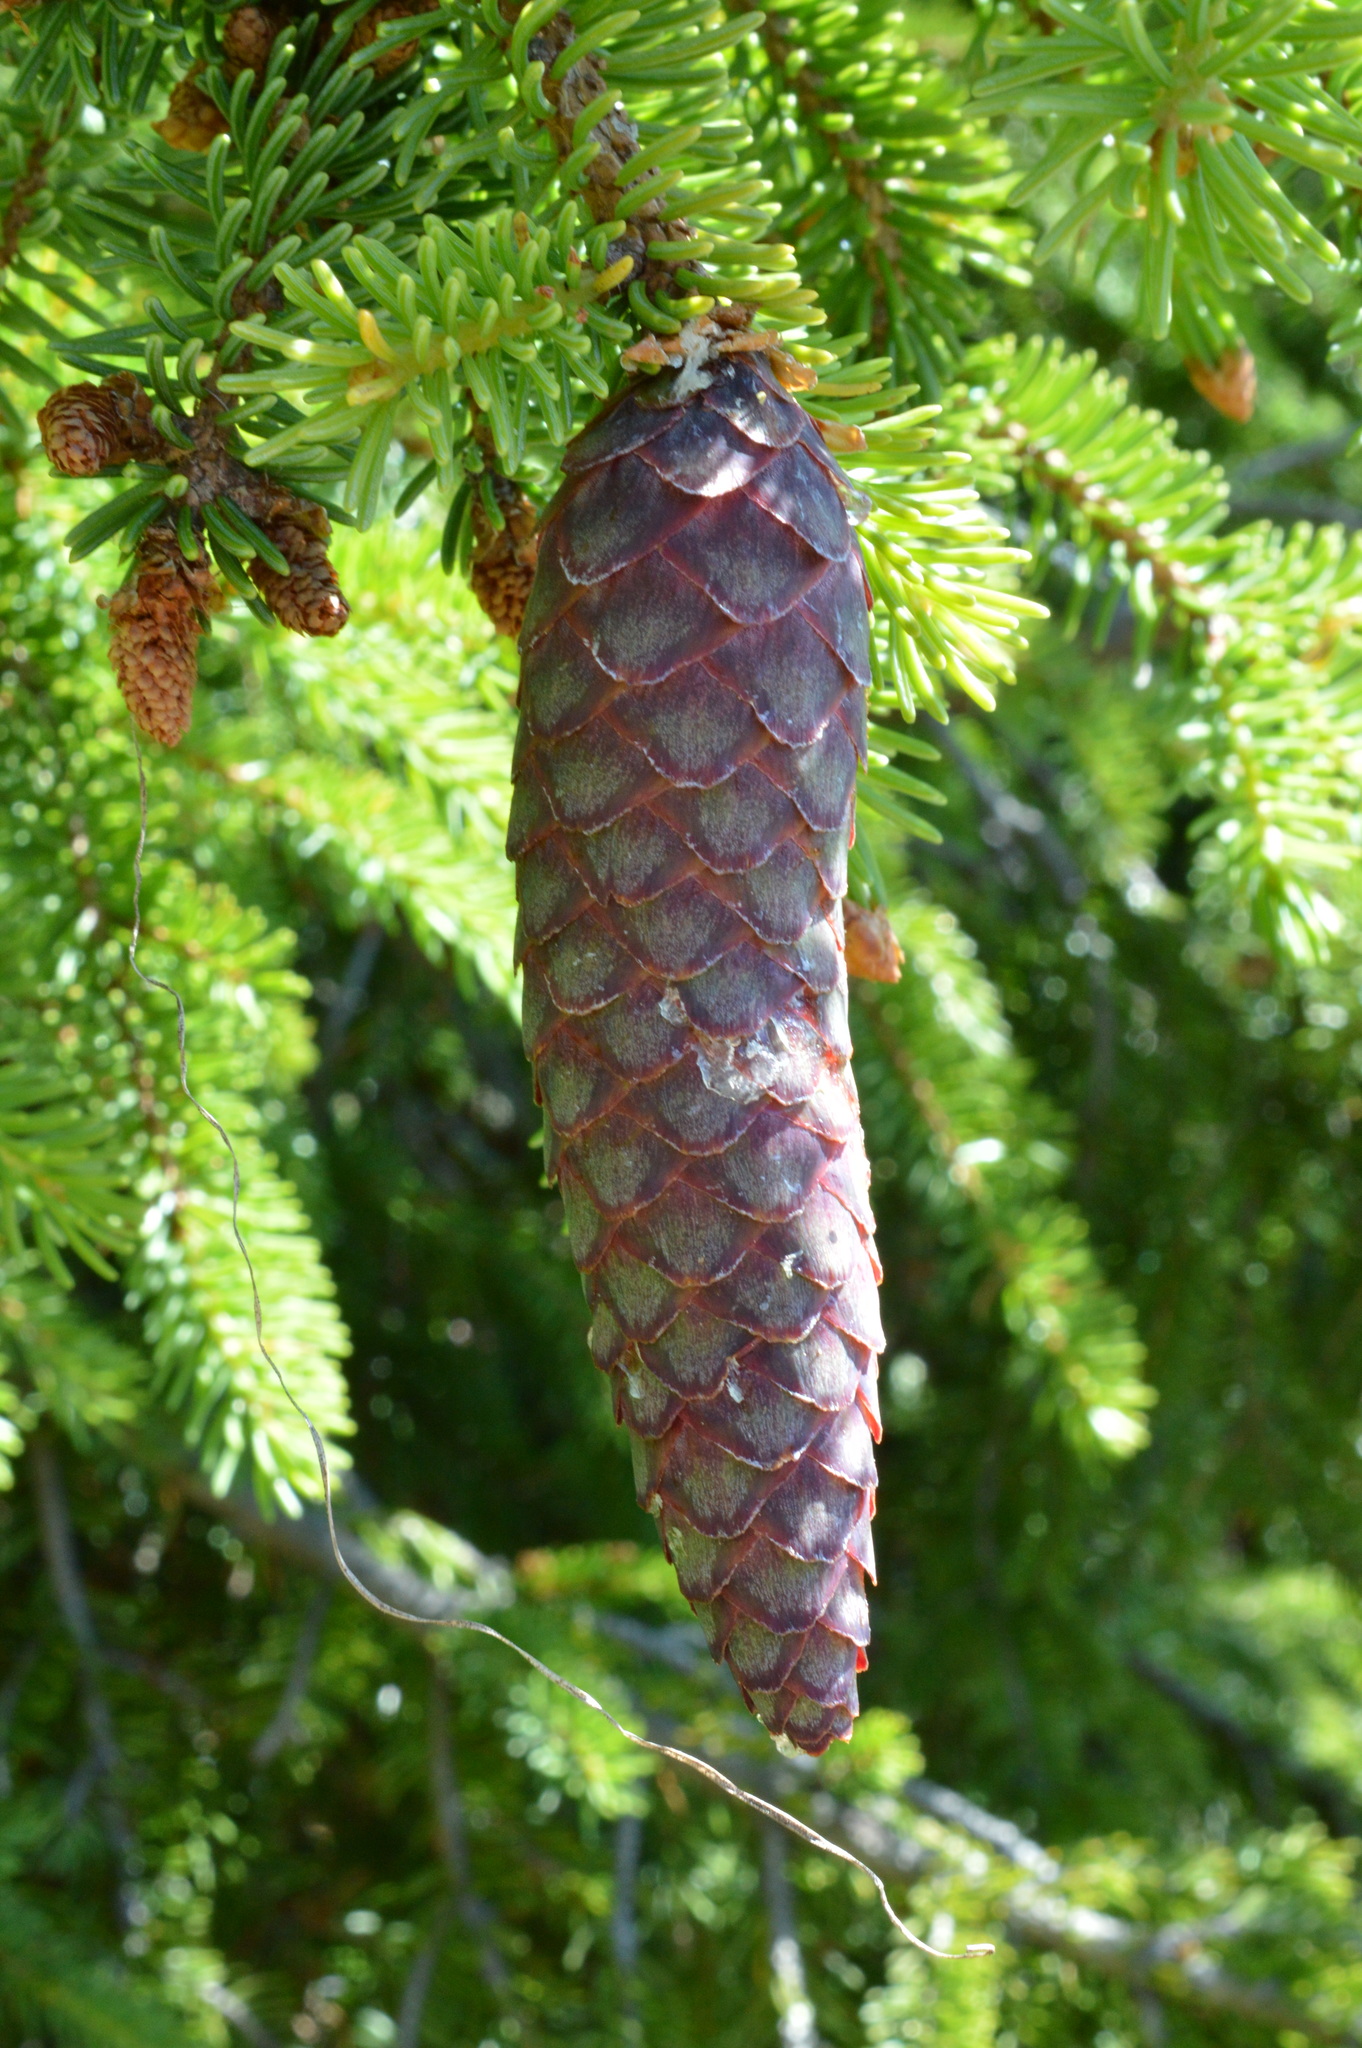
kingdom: Plantae
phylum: Tracheophyta
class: Pinopsida
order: Pinales
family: Pinaceae
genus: Picea
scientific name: Picea abies
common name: Norway spruce
